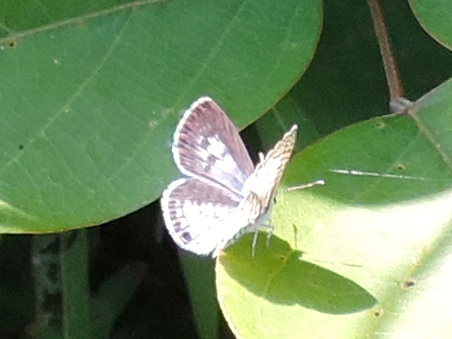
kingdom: Animalia
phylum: Arthropoda
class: Insecta
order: Lepidoptera
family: Lycaenidae
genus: Leptotes
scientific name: Leptotes cassius
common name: Cassius blue
